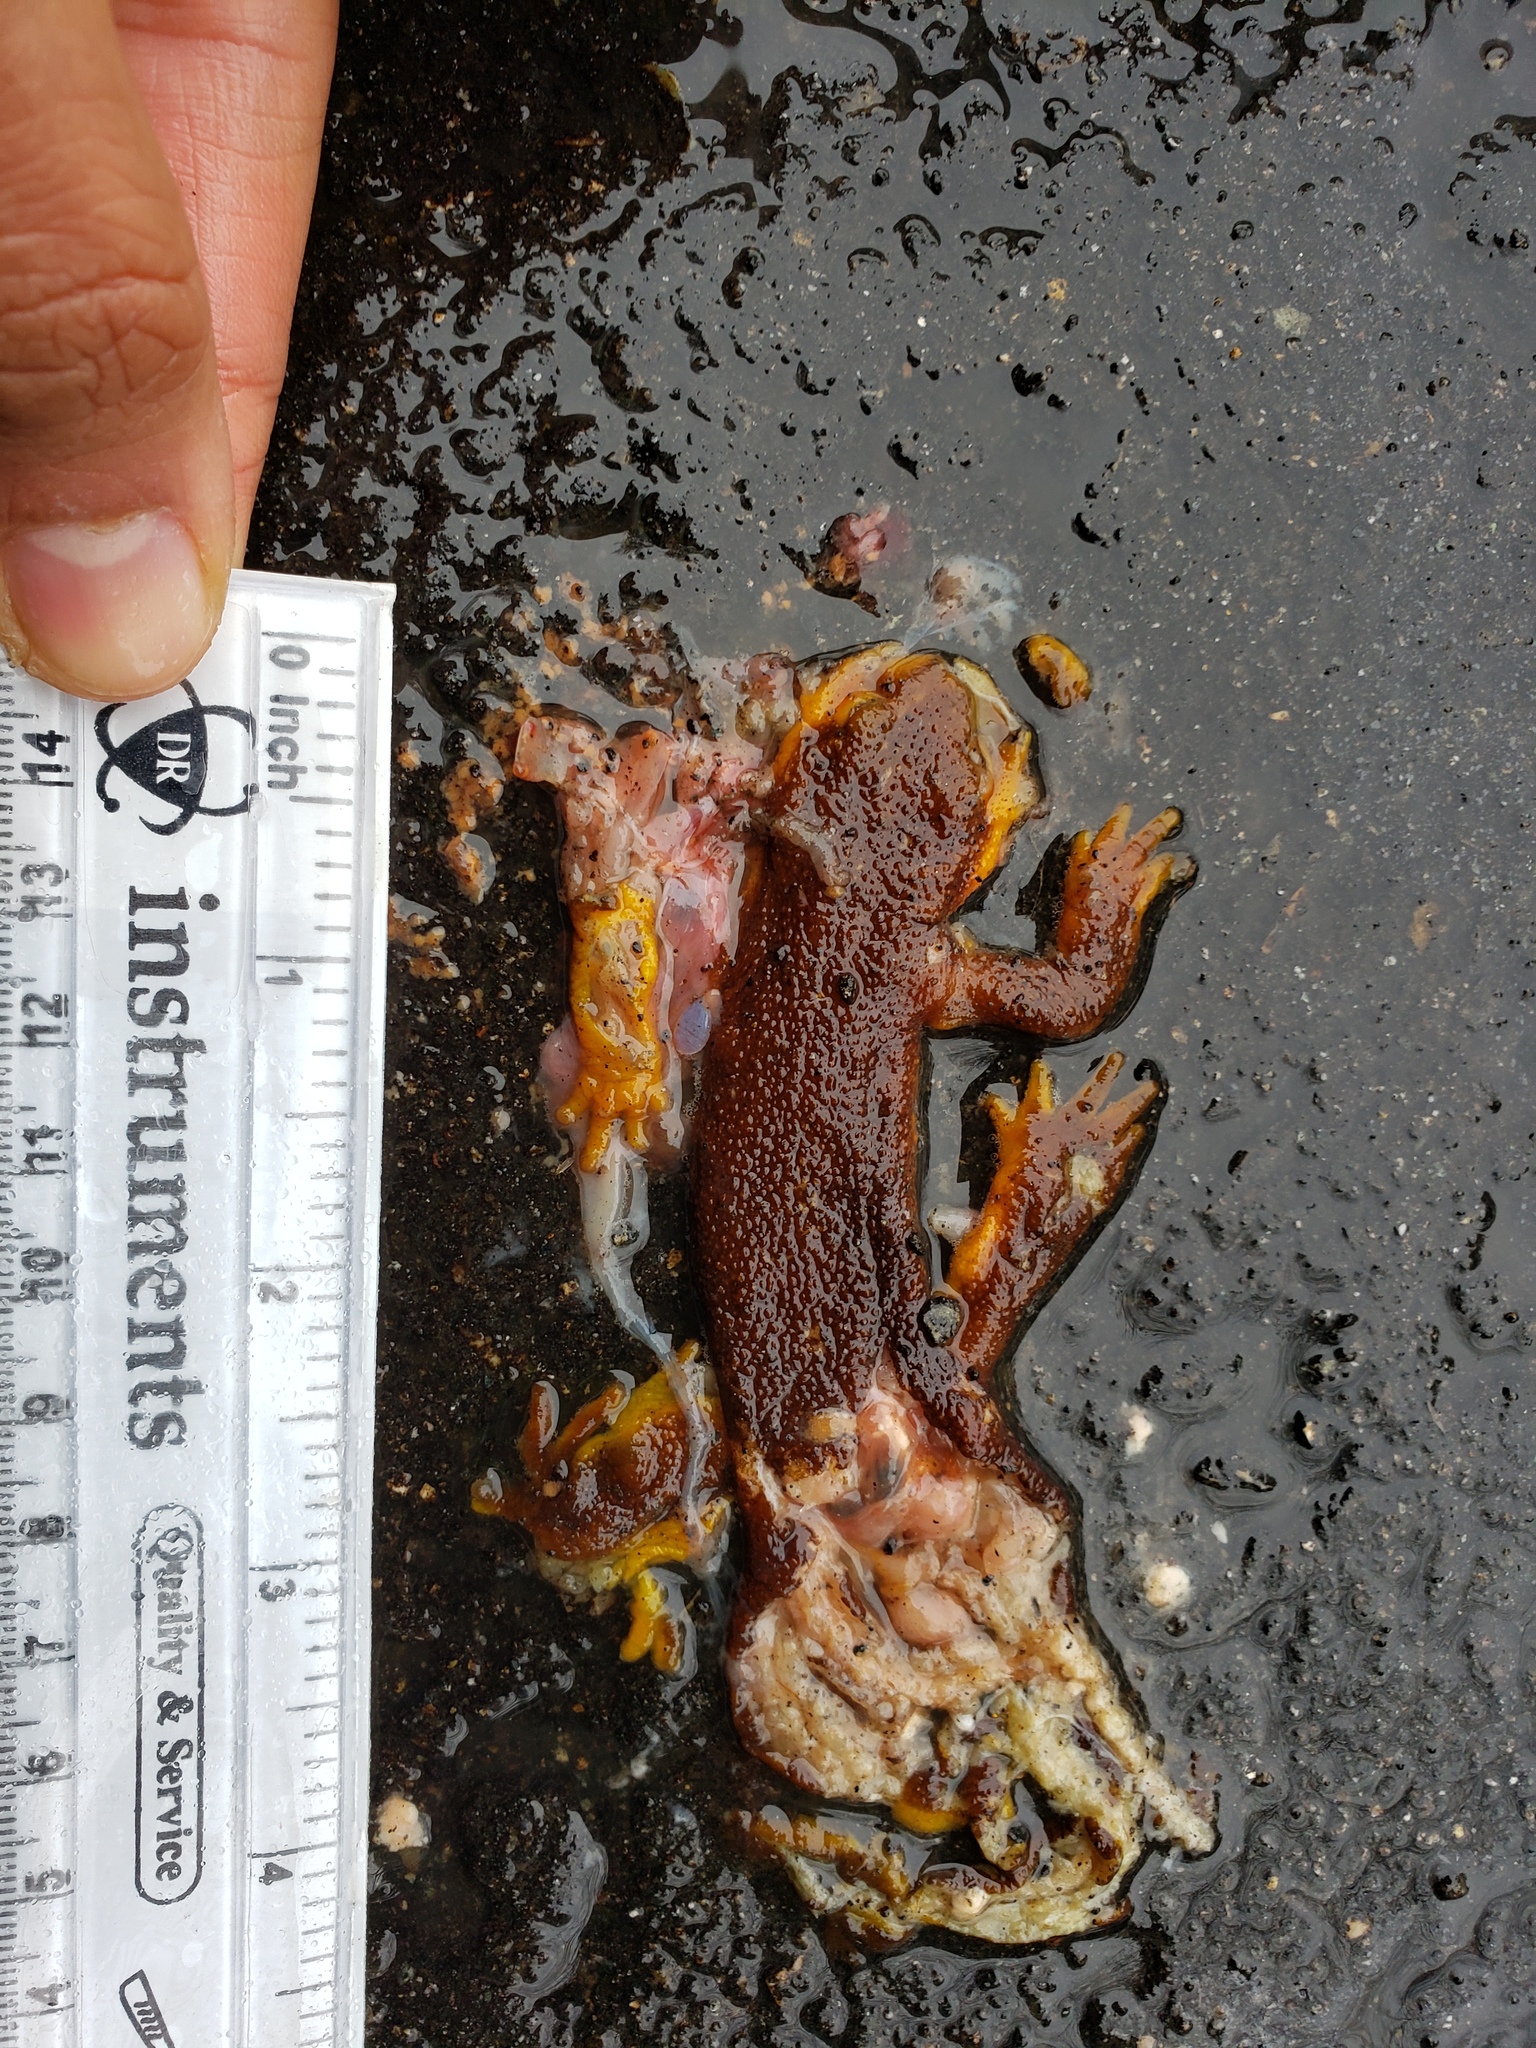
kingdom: Animalia
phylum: Chordata
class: Amphibia
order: Caudata
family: Salamandridae
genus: Taricha
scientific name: Taricha
